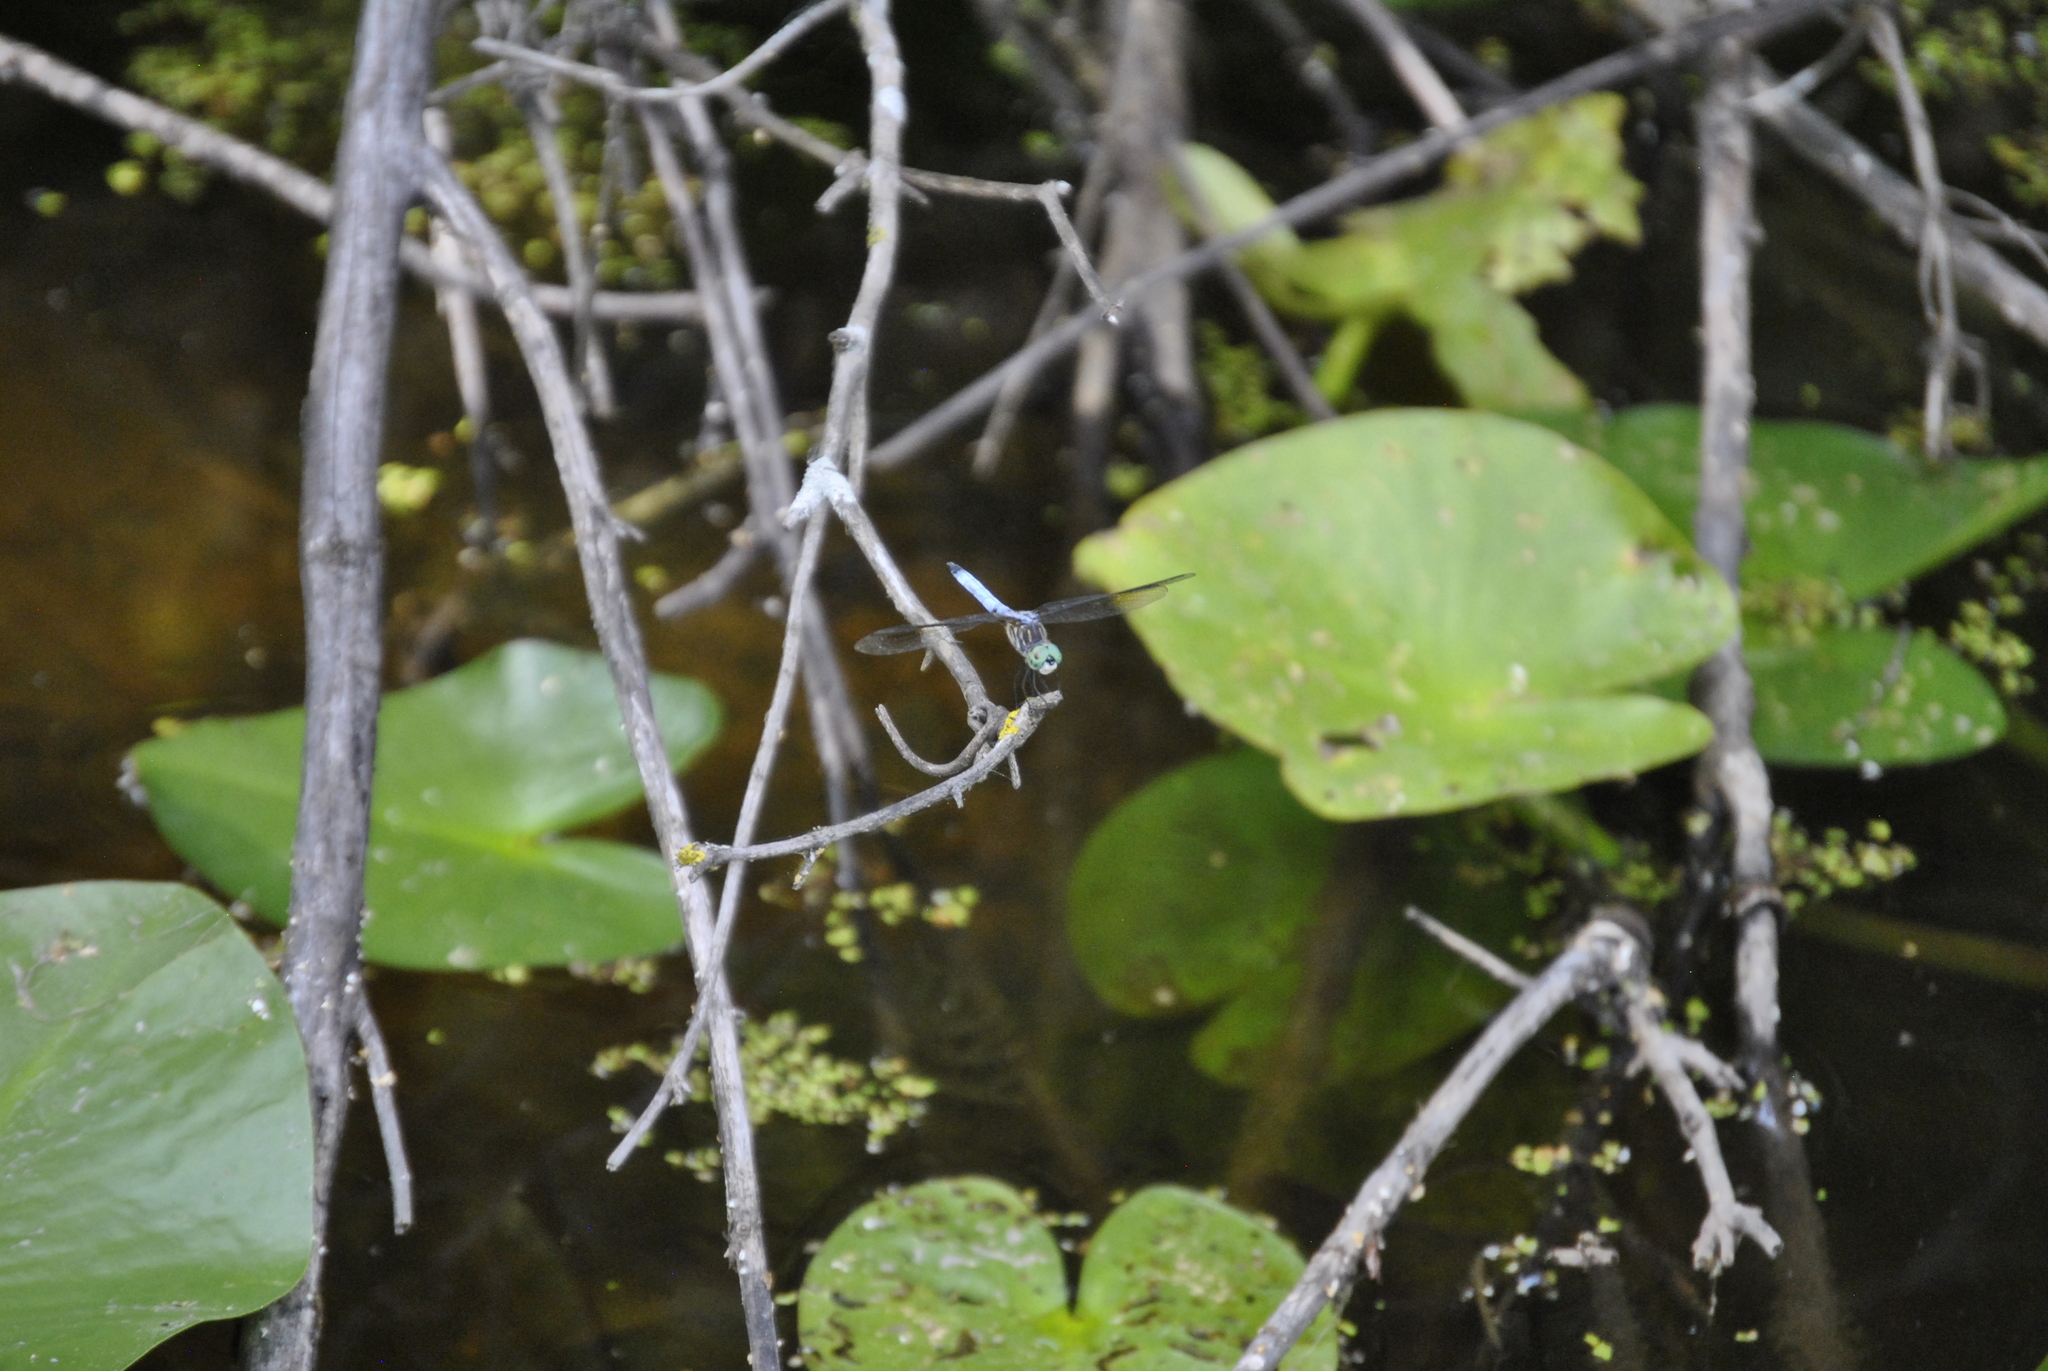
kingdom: Animalia
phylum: Arthropoda
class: Insecta
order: Odonata
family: Libellulidae
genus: Pachydiplax
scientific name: Pachydiplax longipennis
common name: Blue dasher
